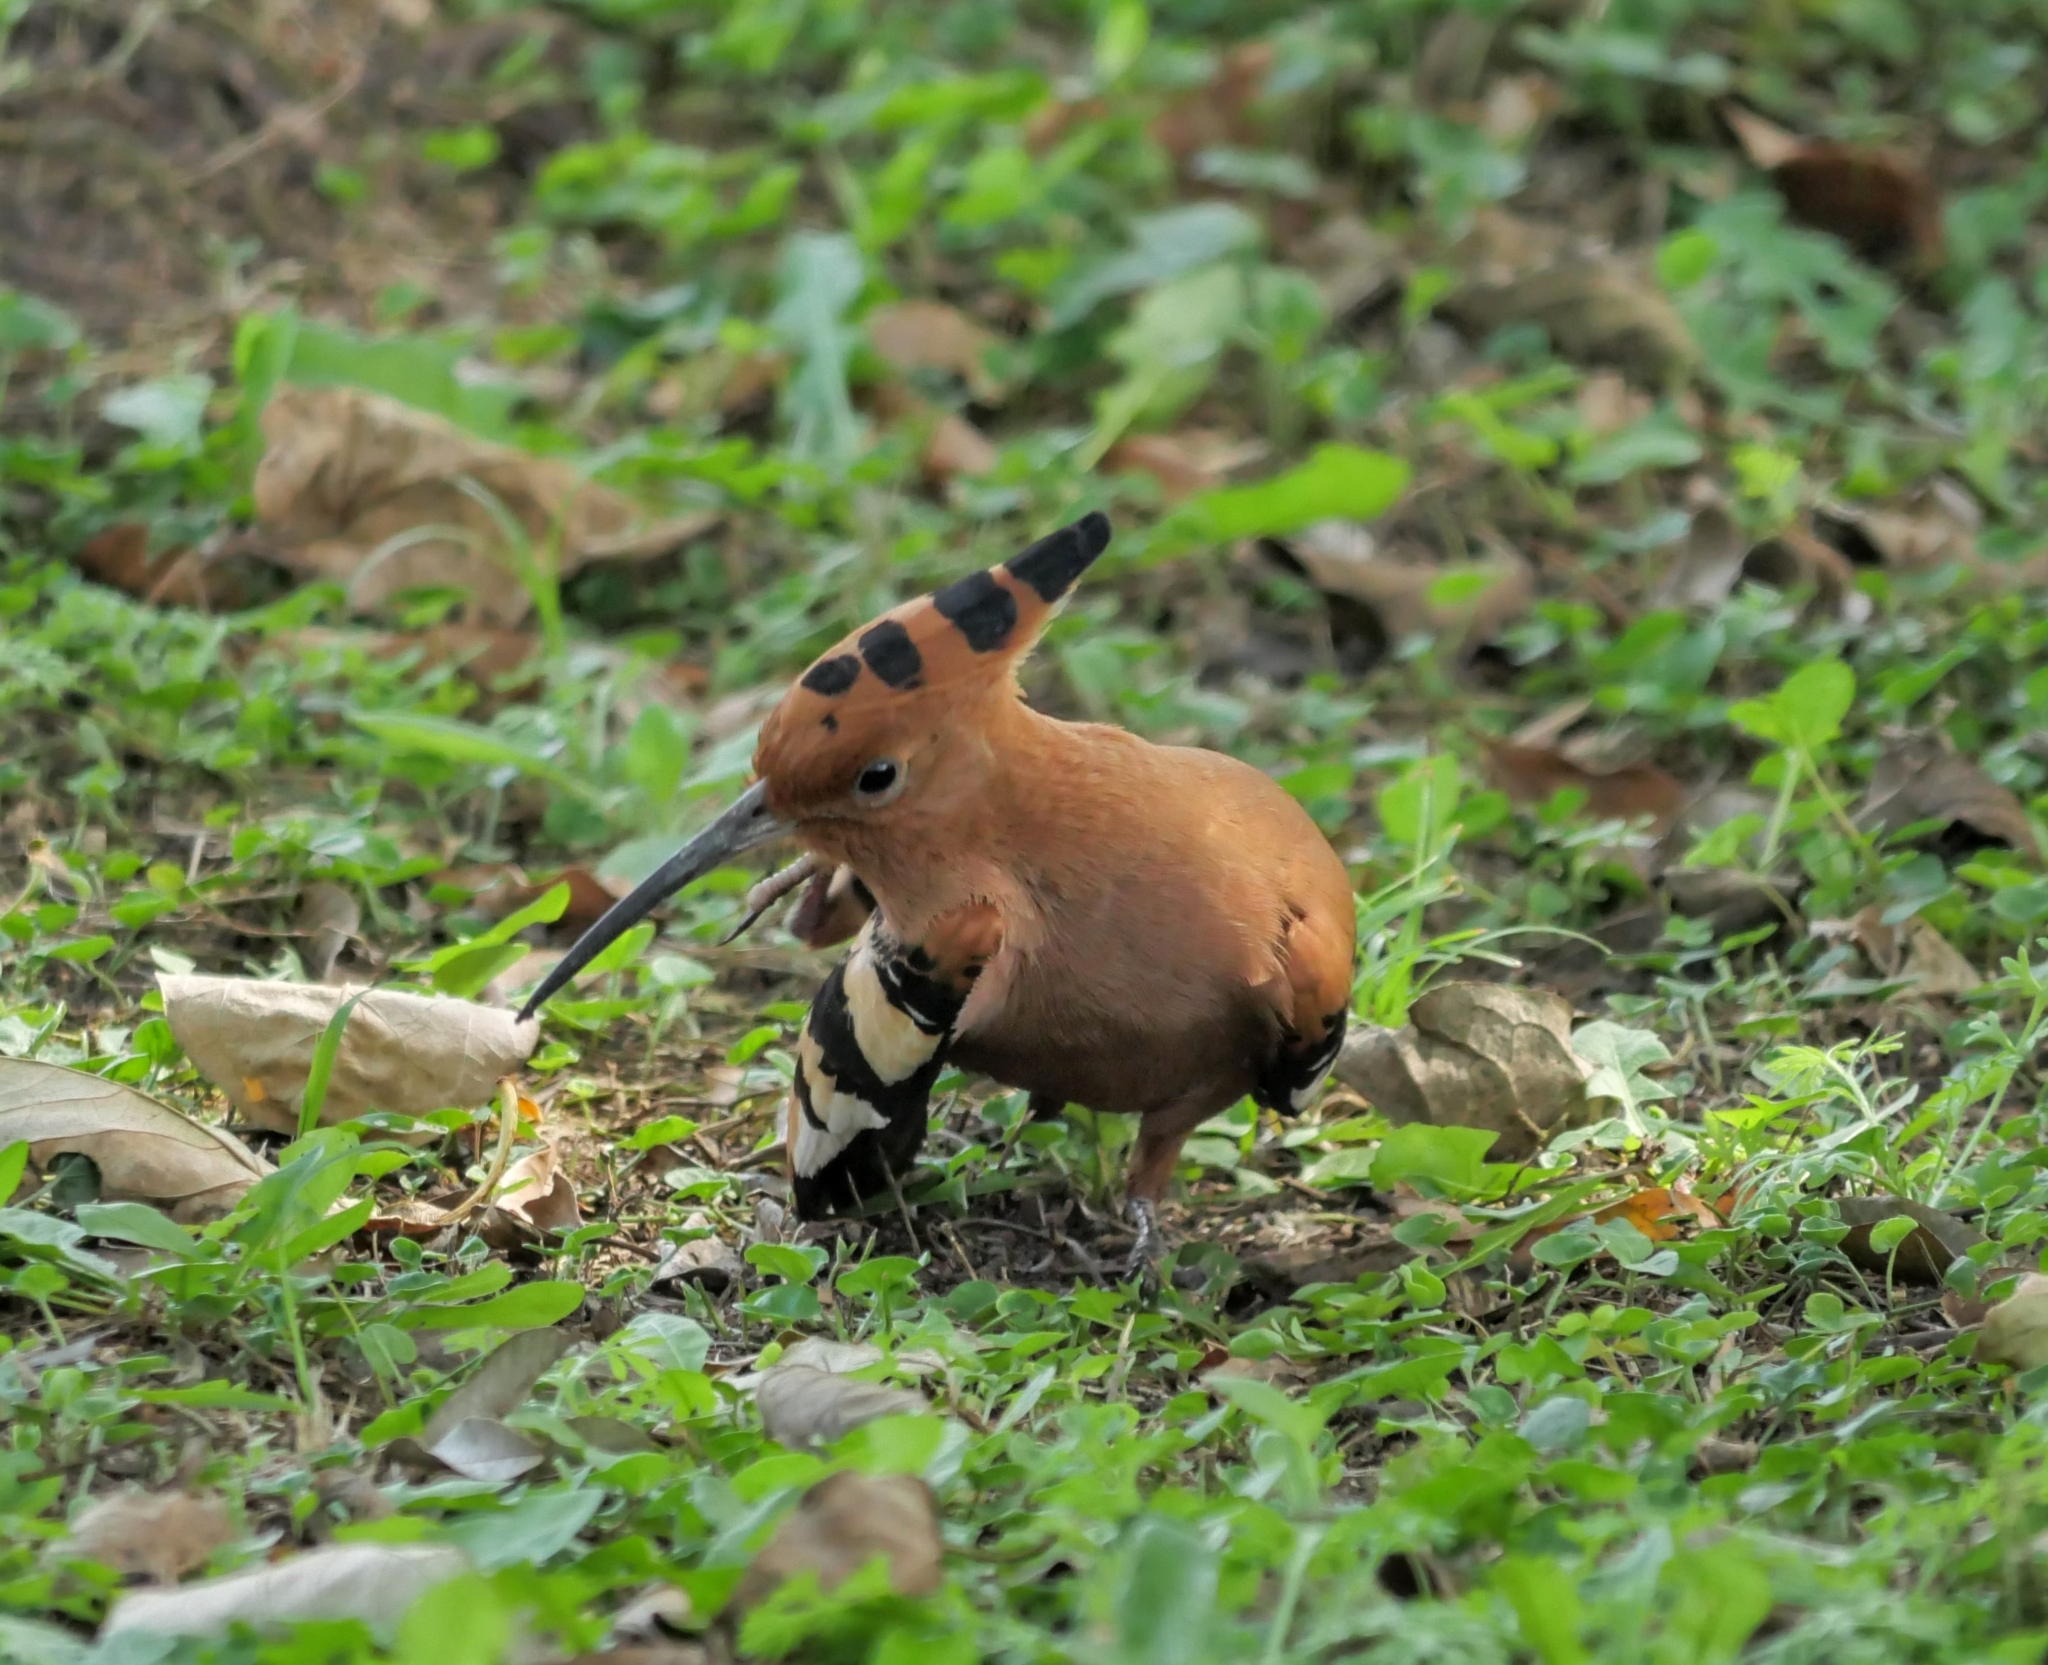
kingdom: Animalia
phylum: Chordata
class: Aves
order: Bucerotiformes
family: Upupidae
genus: Upupa
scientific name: Upupa africana
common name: African hoopoe
